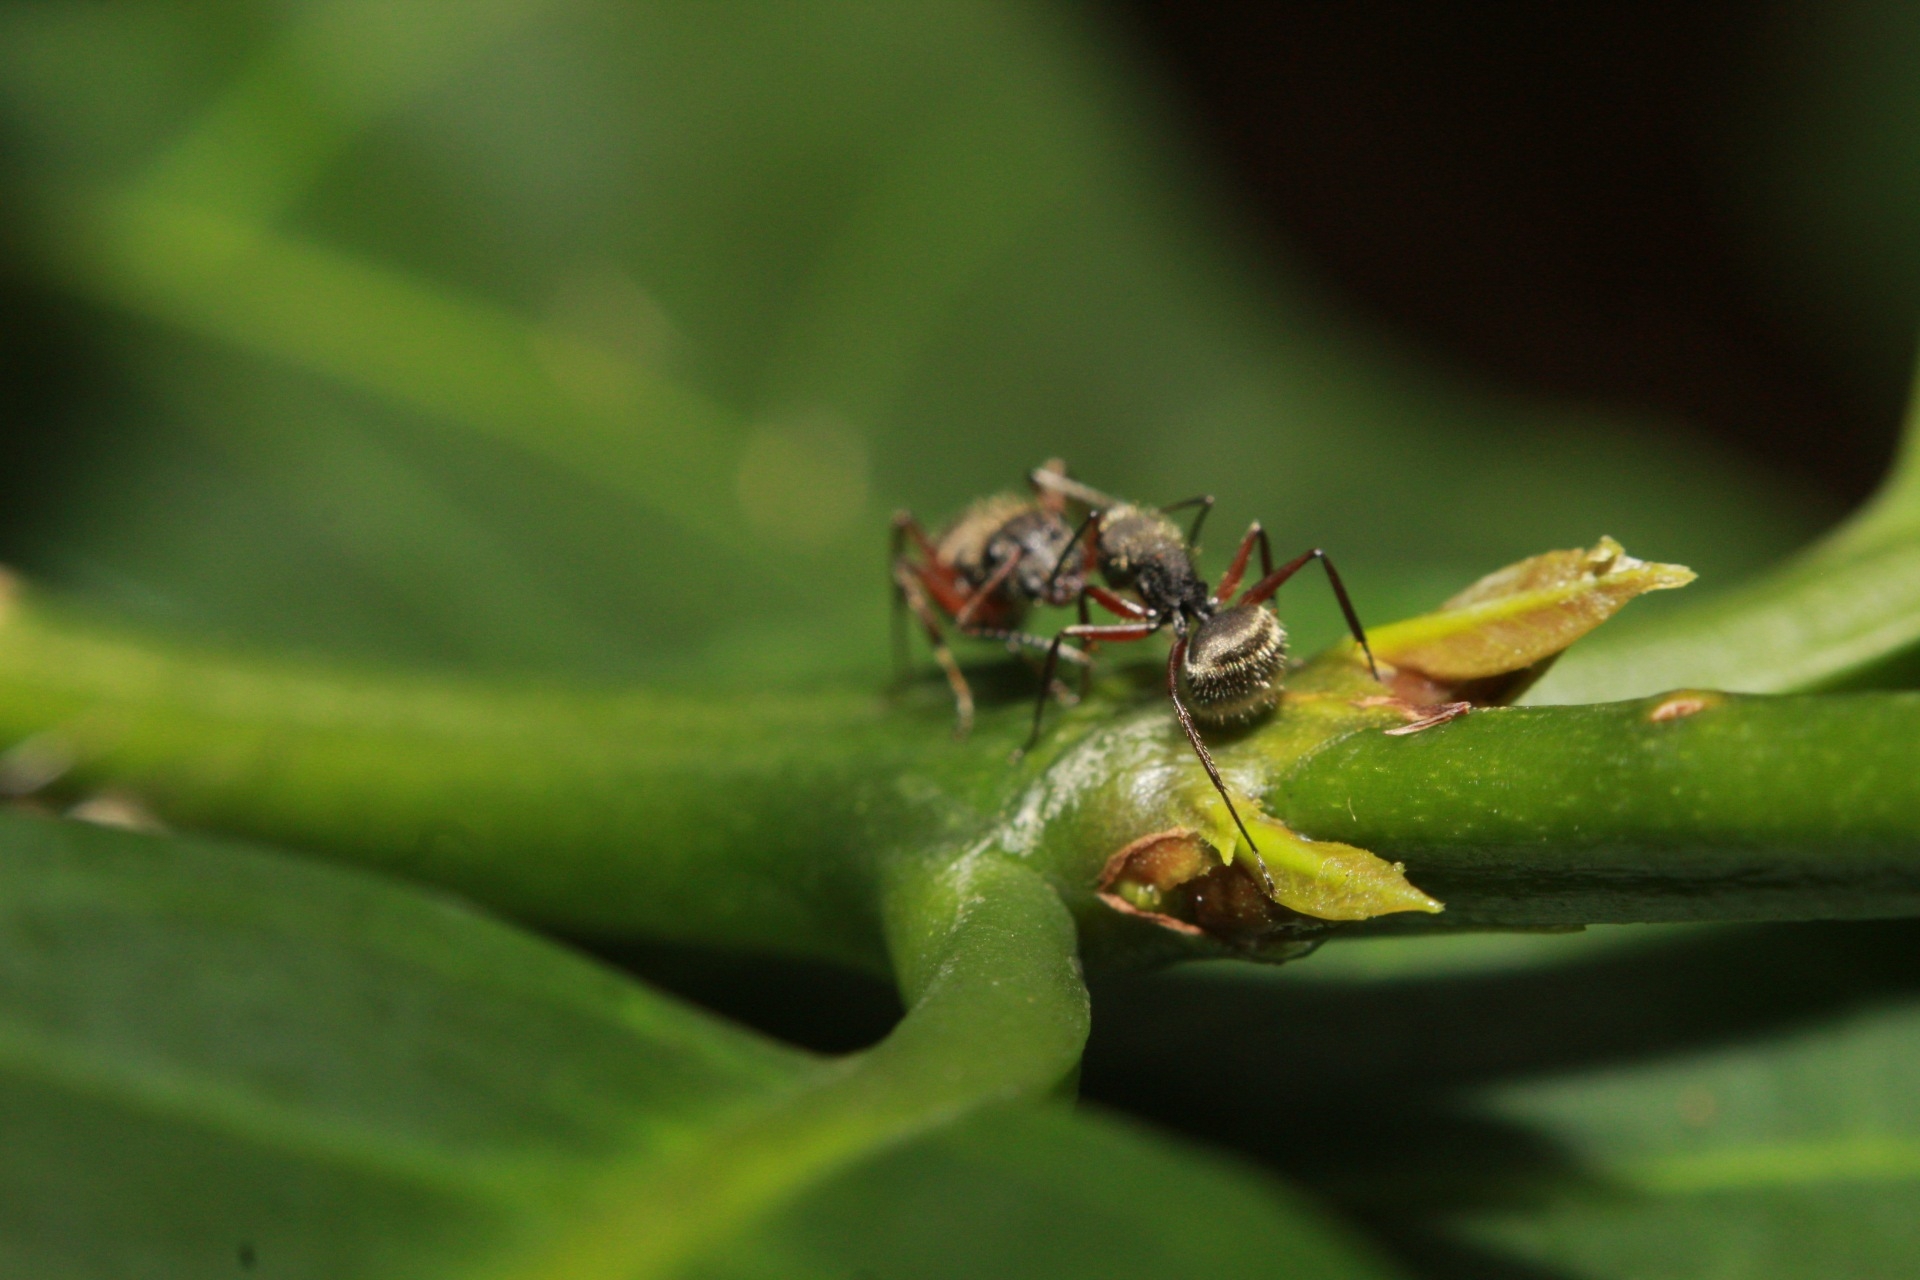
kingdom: Animalia
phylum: Arthropoda
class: Insecta
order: Hymenoptera
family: Formicidae
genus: Camponotus
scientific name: Camponotus textor
